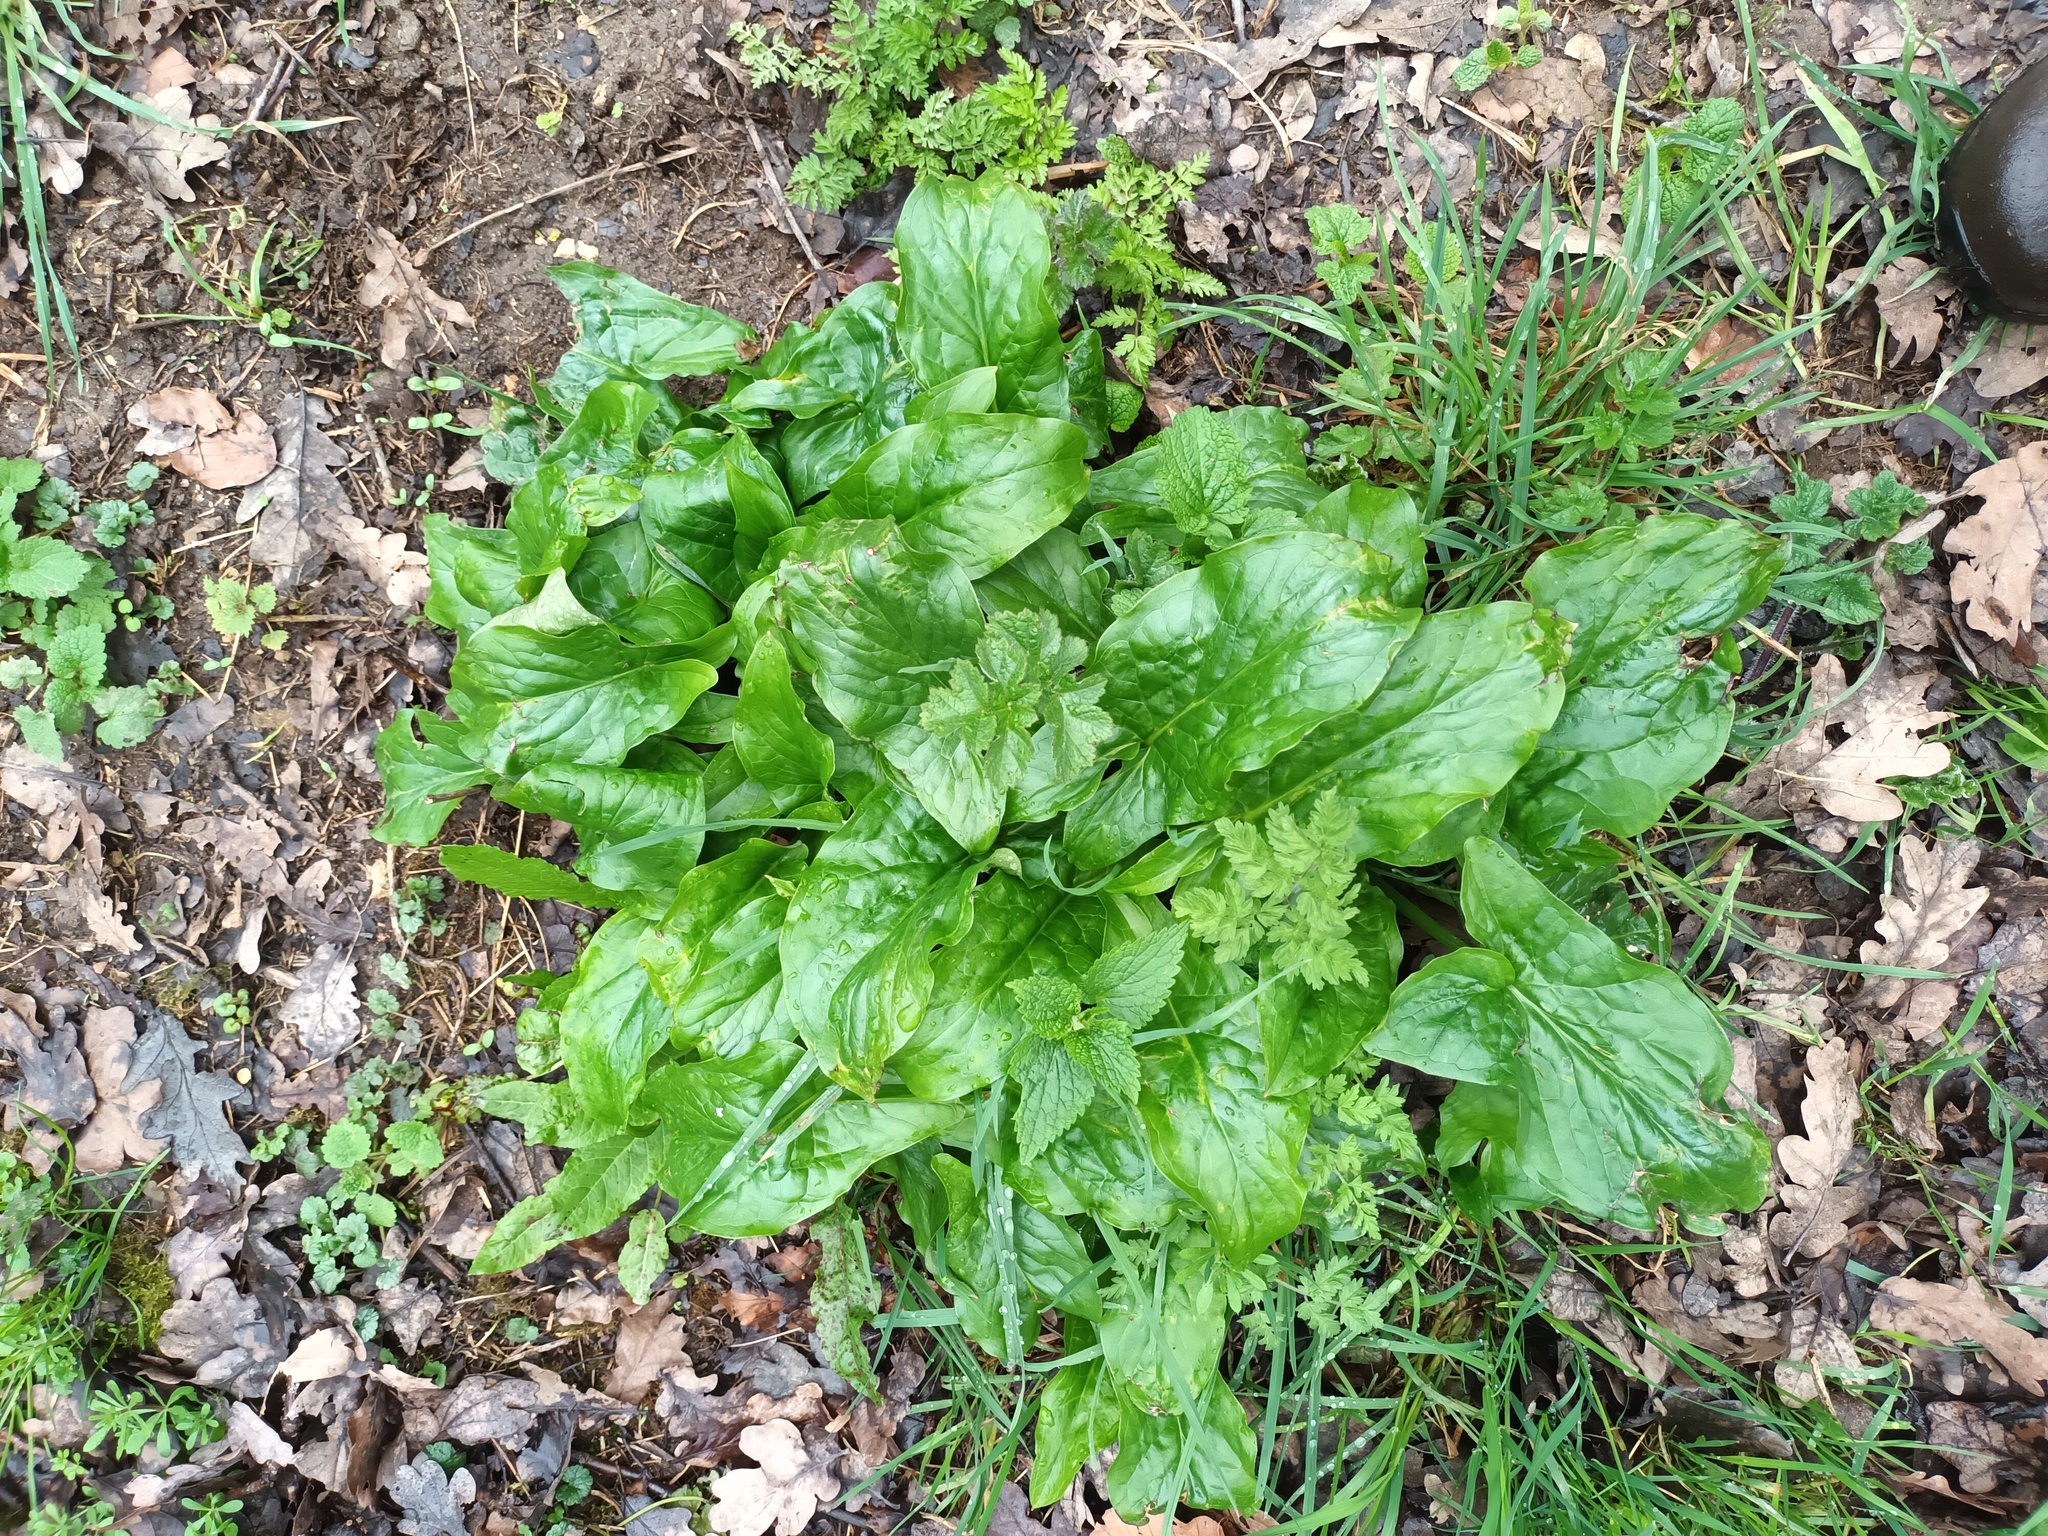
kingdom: Plantae
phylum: Tracheophyta
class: Liliopsida
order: Alismatales
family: Araceae
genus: Arum
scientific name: Arum maculatum
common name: Lords-and-ladies
